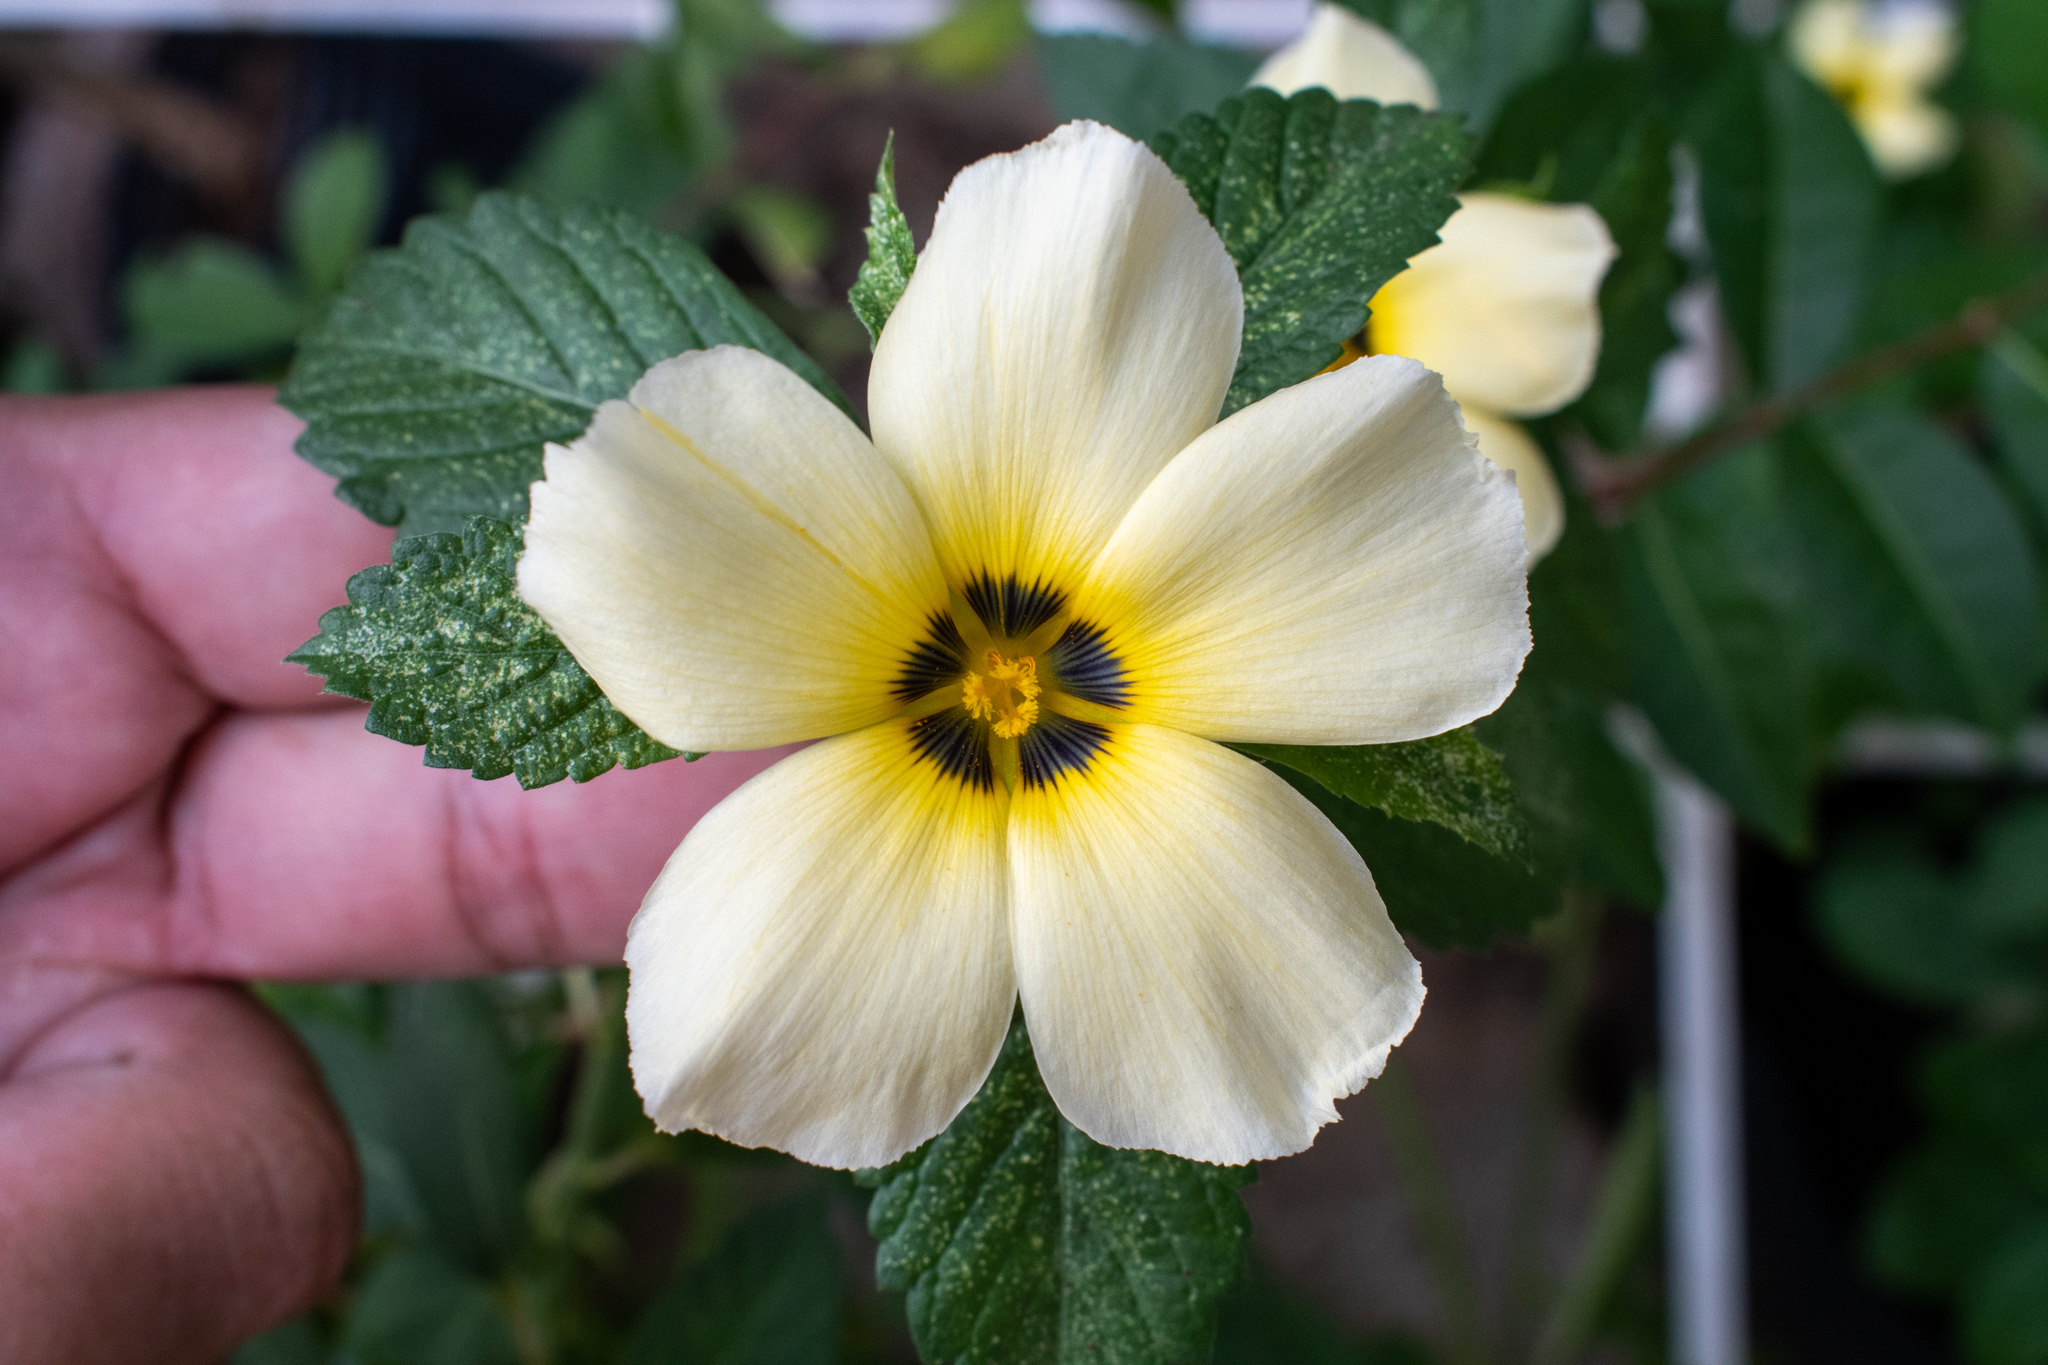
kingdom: Plantae
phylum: Tracheophyta
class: Magnoliopsida
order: Malpighiales
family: Turneraceae
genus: Turnera
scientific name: Turnera subulata
